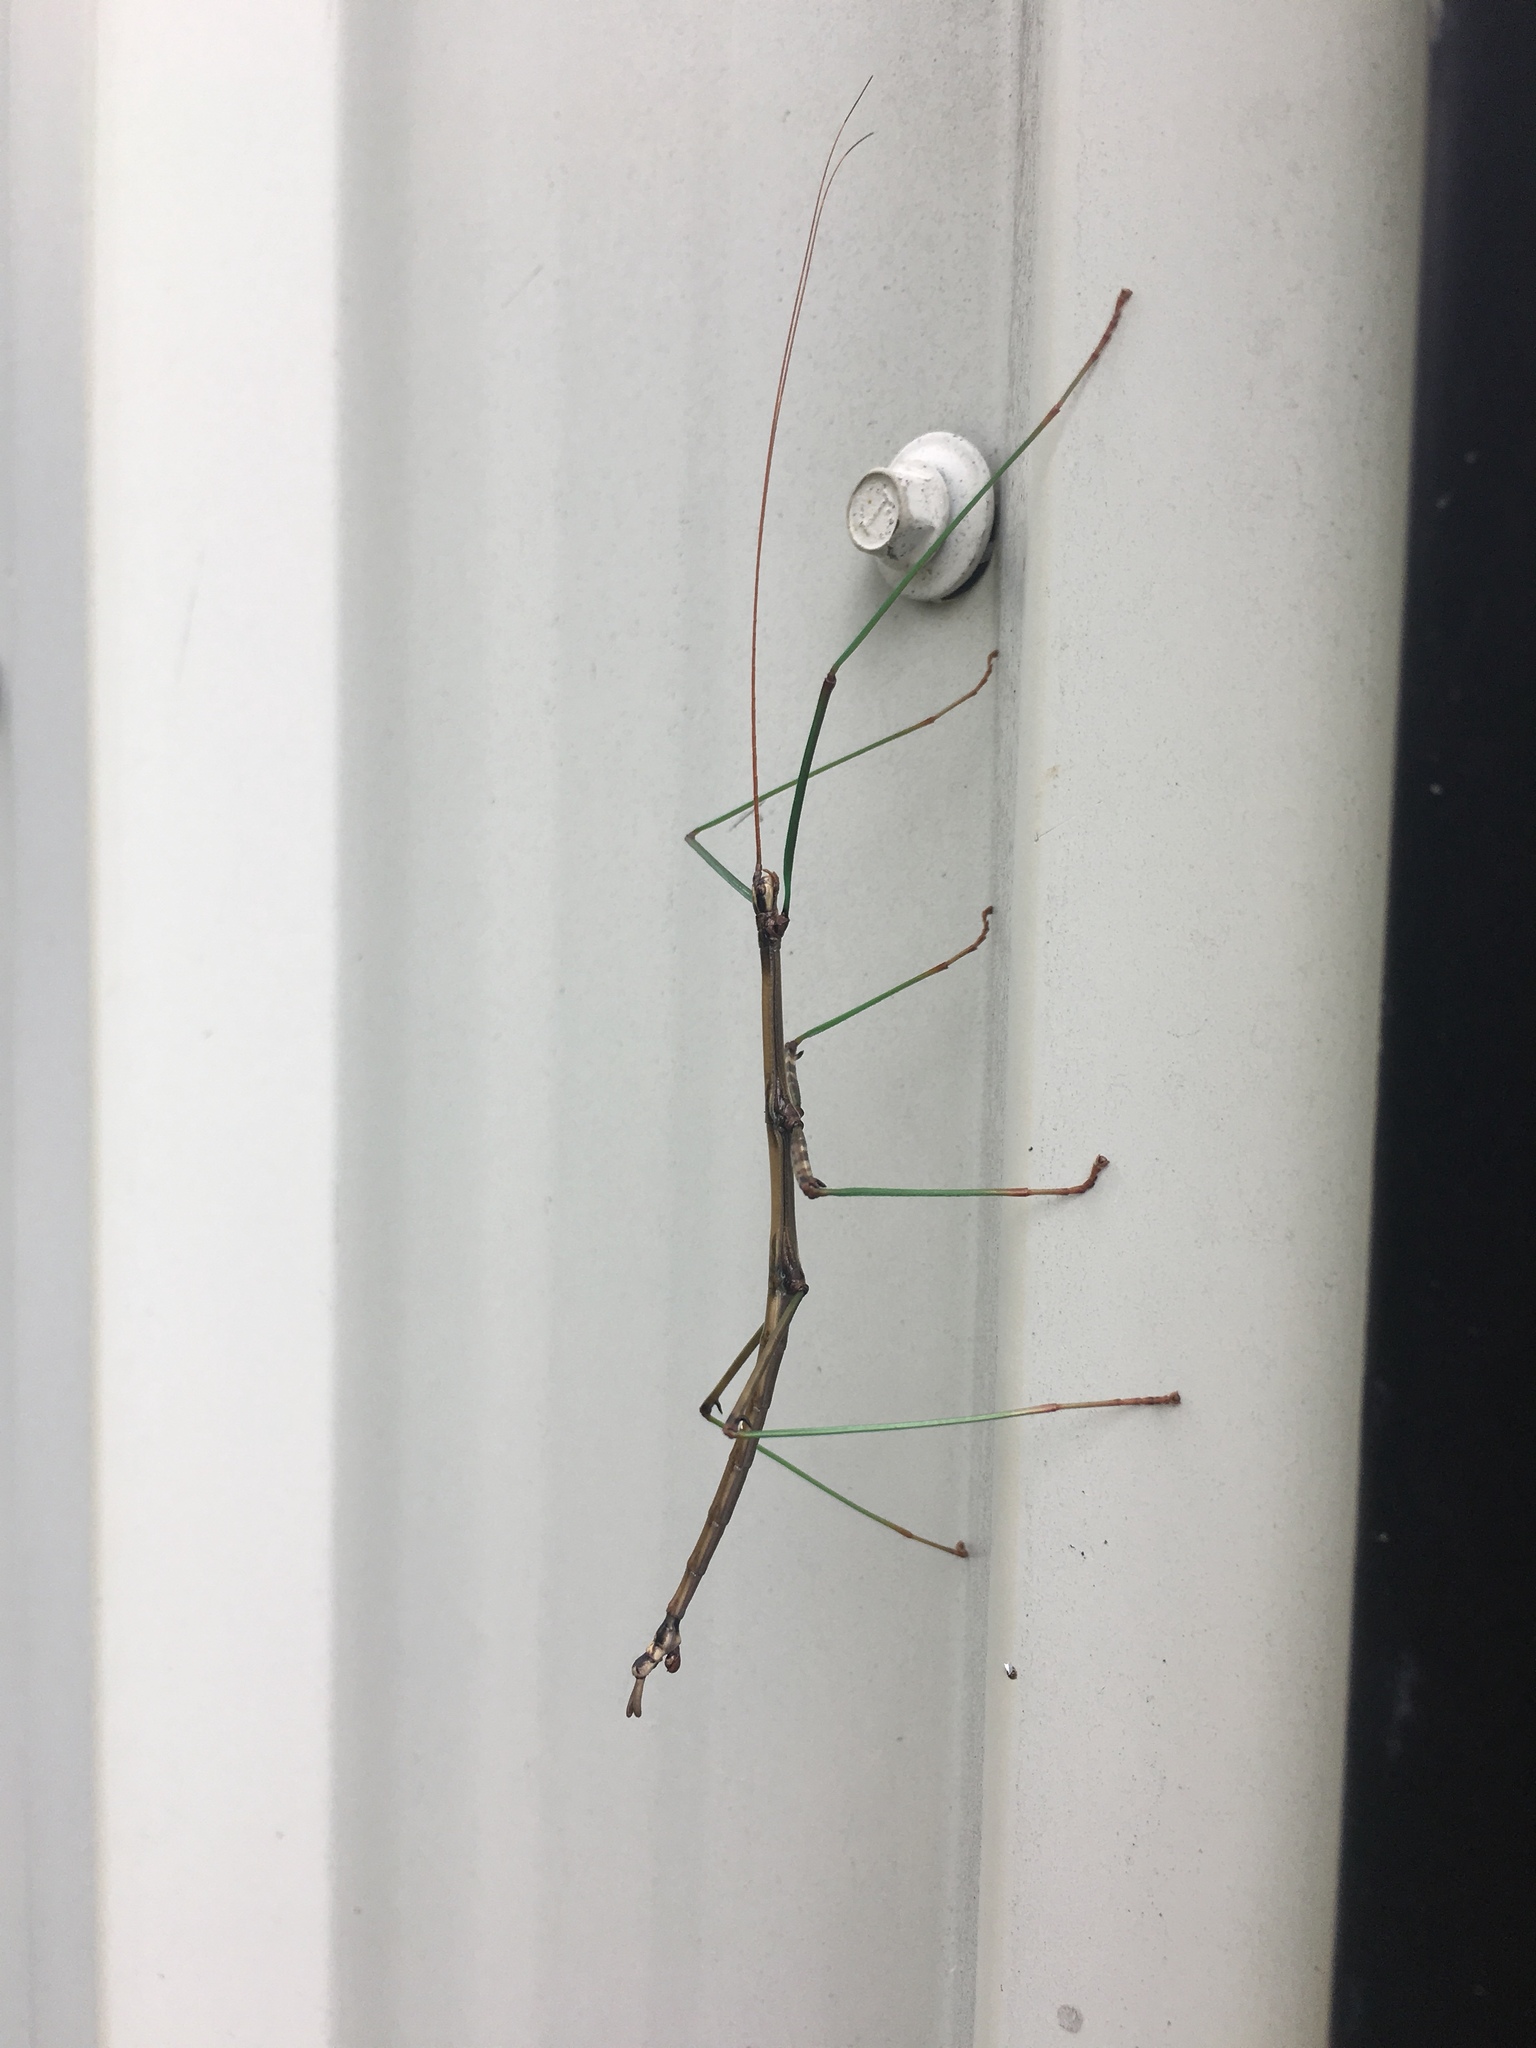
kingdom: Animalia
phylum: Arthropoda
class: Insecta
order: Phasmida
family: Diapheromeridae
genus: Diapheromera
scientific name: Diapheromera femorata
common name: Common american walkingstick
